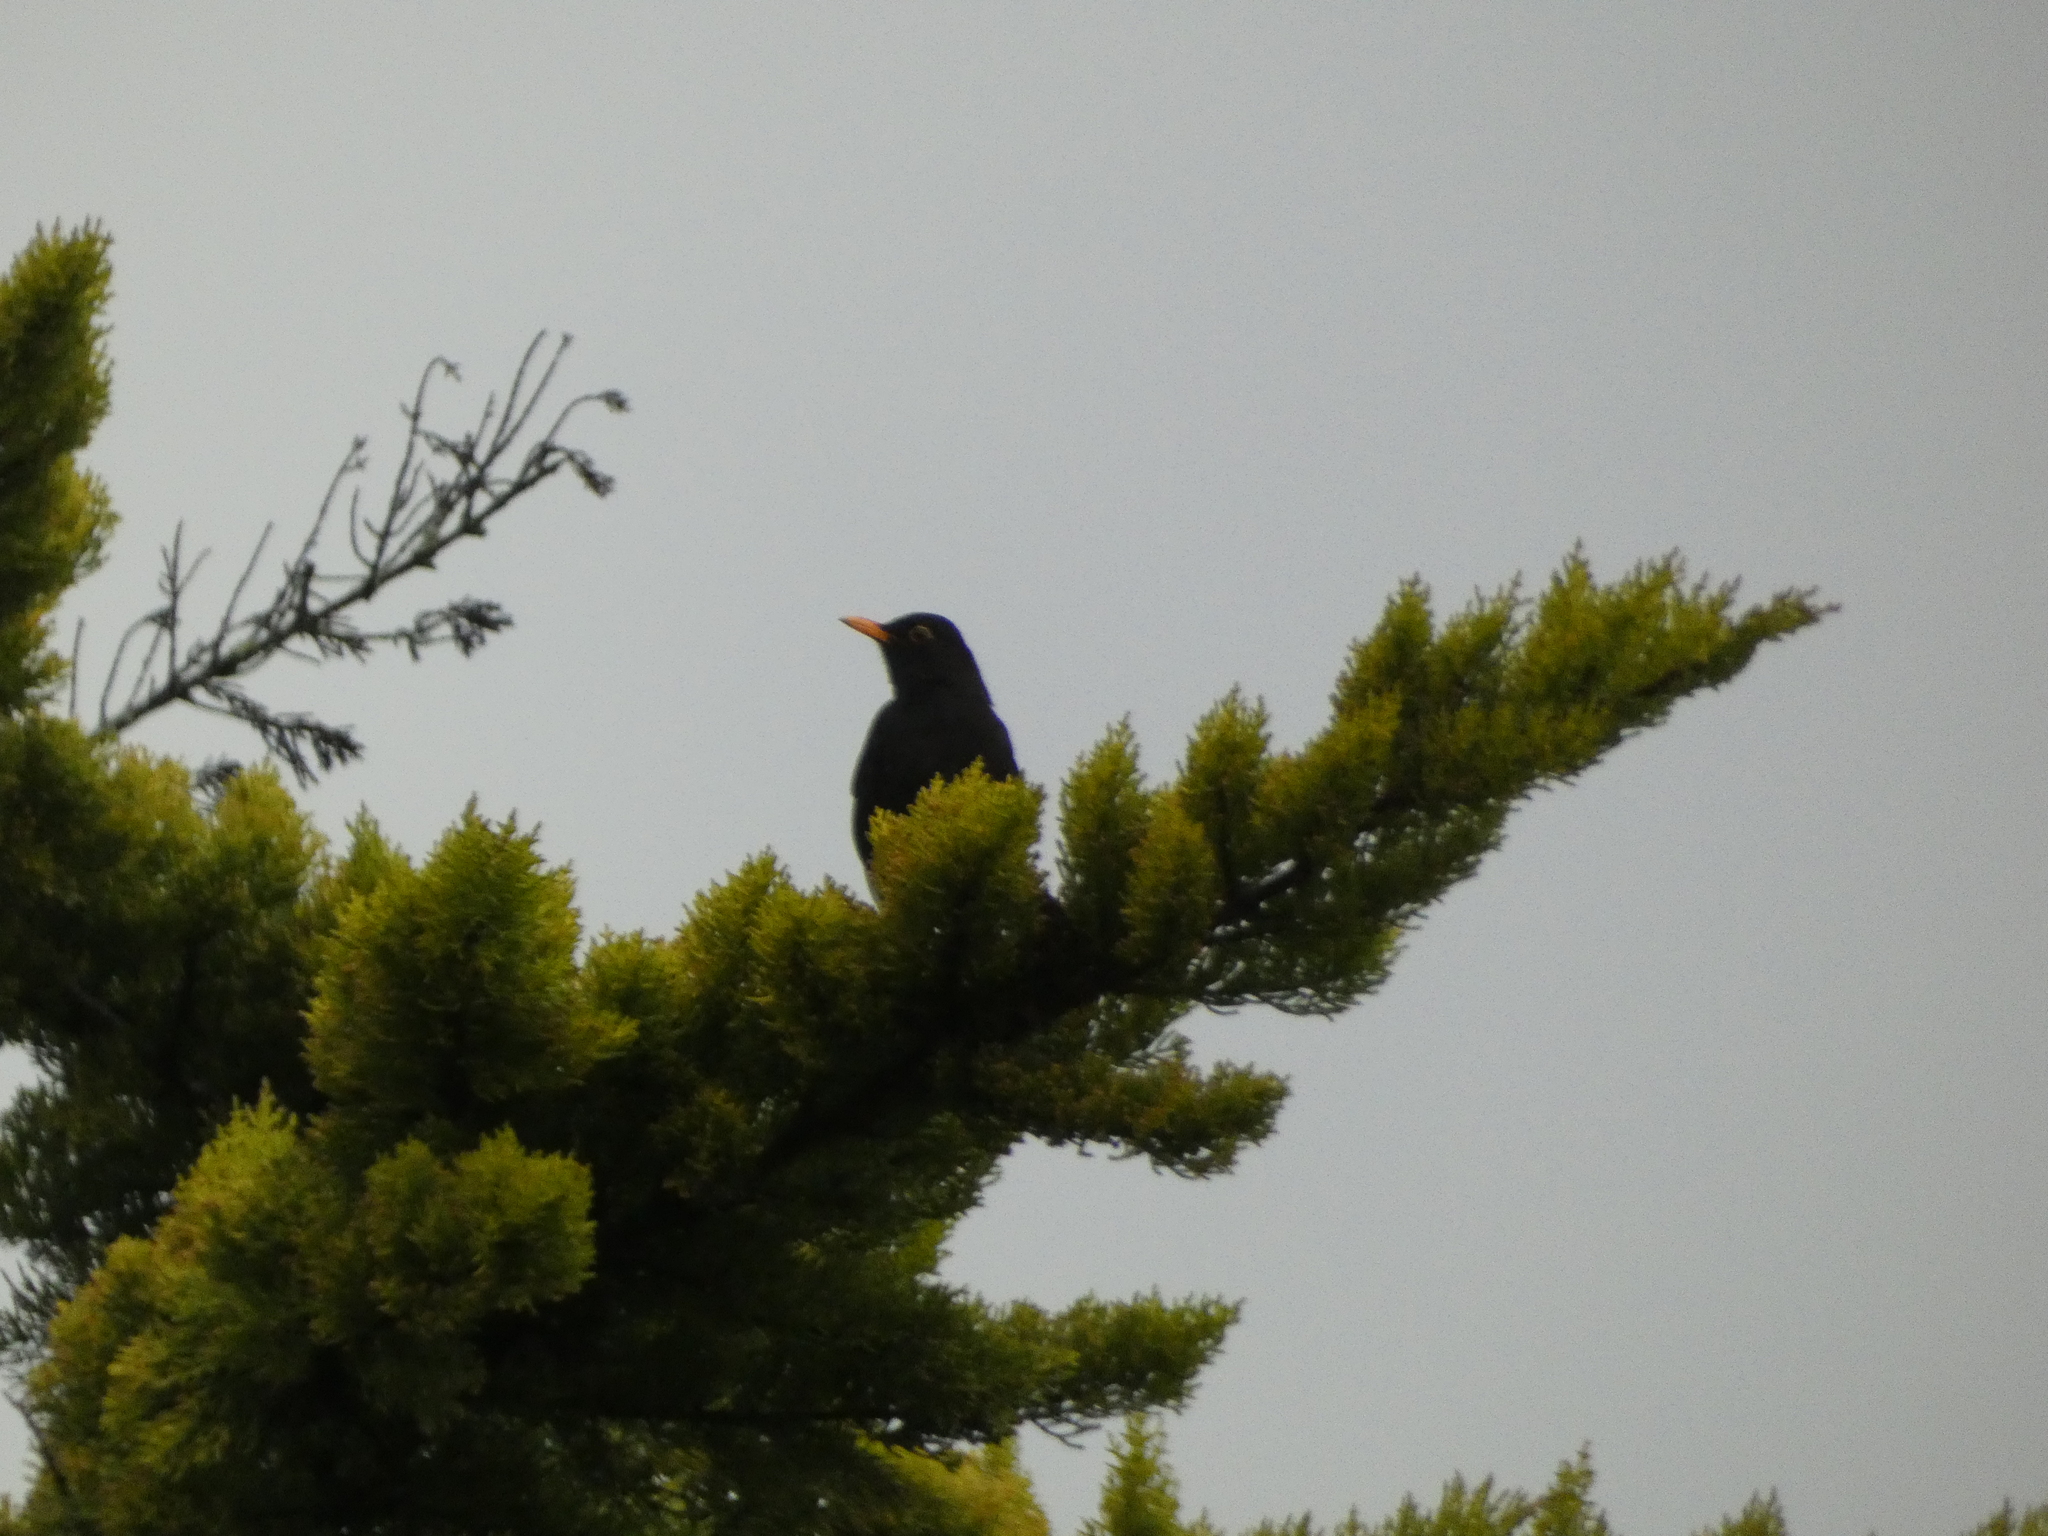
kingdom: Animalia
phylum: Chordata
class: Aves
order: Passeriformes
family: Turdidae
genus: Turdus
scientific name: Turdus merula
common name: Common blackbird
